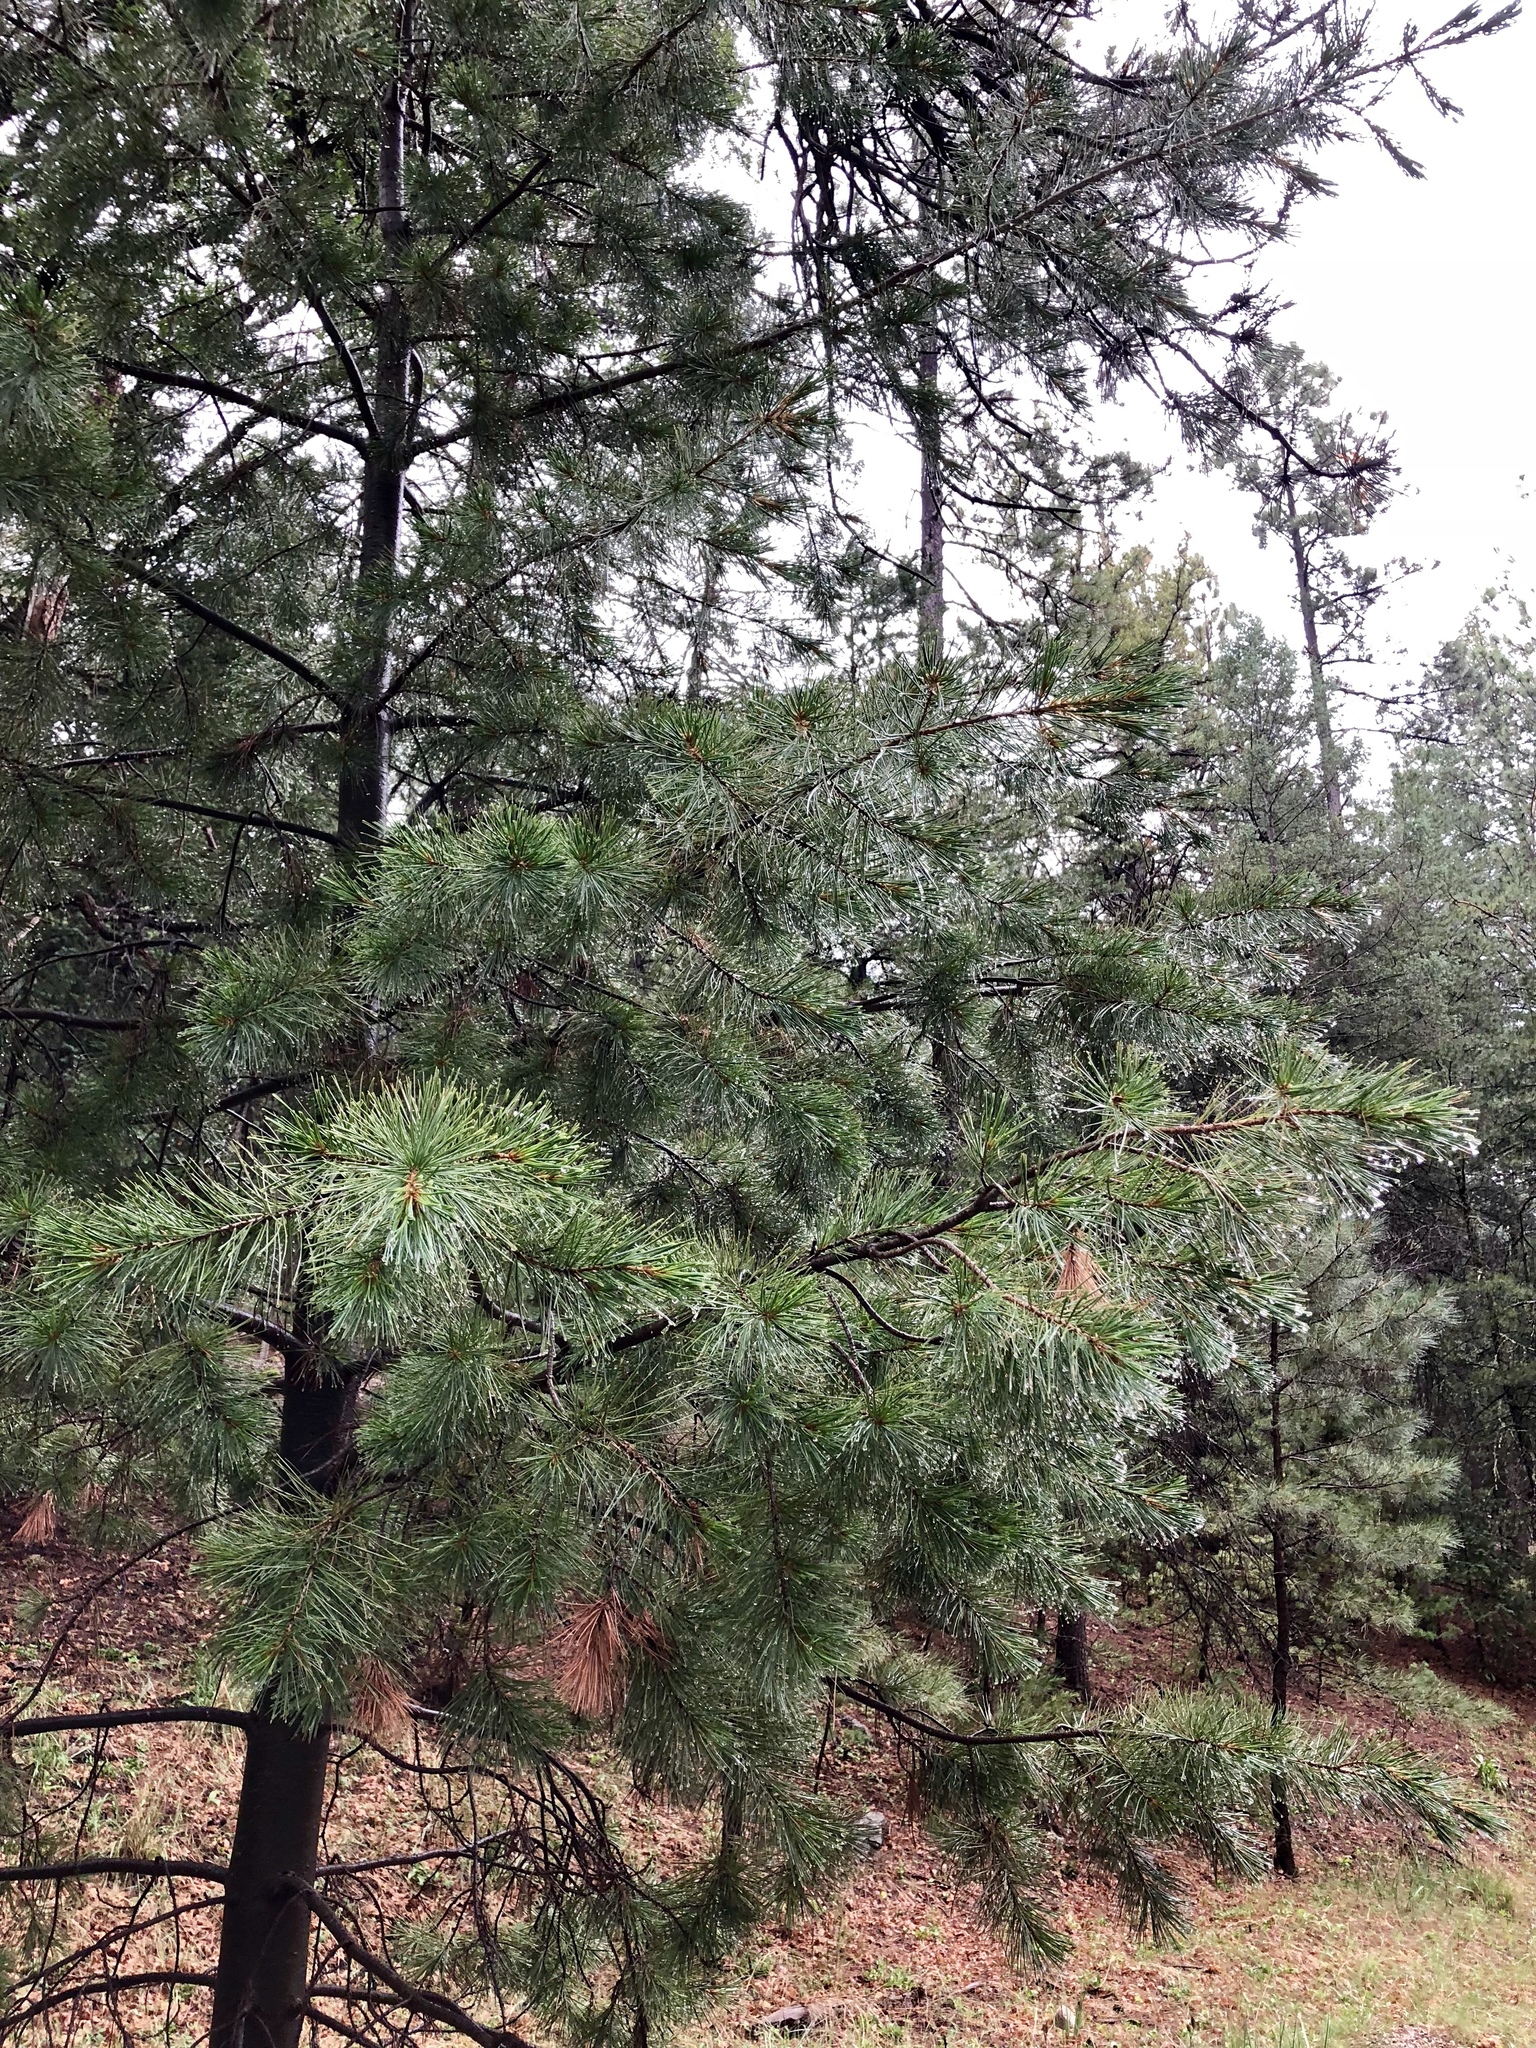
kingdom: Plantae
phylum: Tracheophyta
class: Pinopsida
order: Pinales
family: Pinaceae
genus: Pinus
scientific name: Pinus strobiformis
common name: Southwestern white pine
